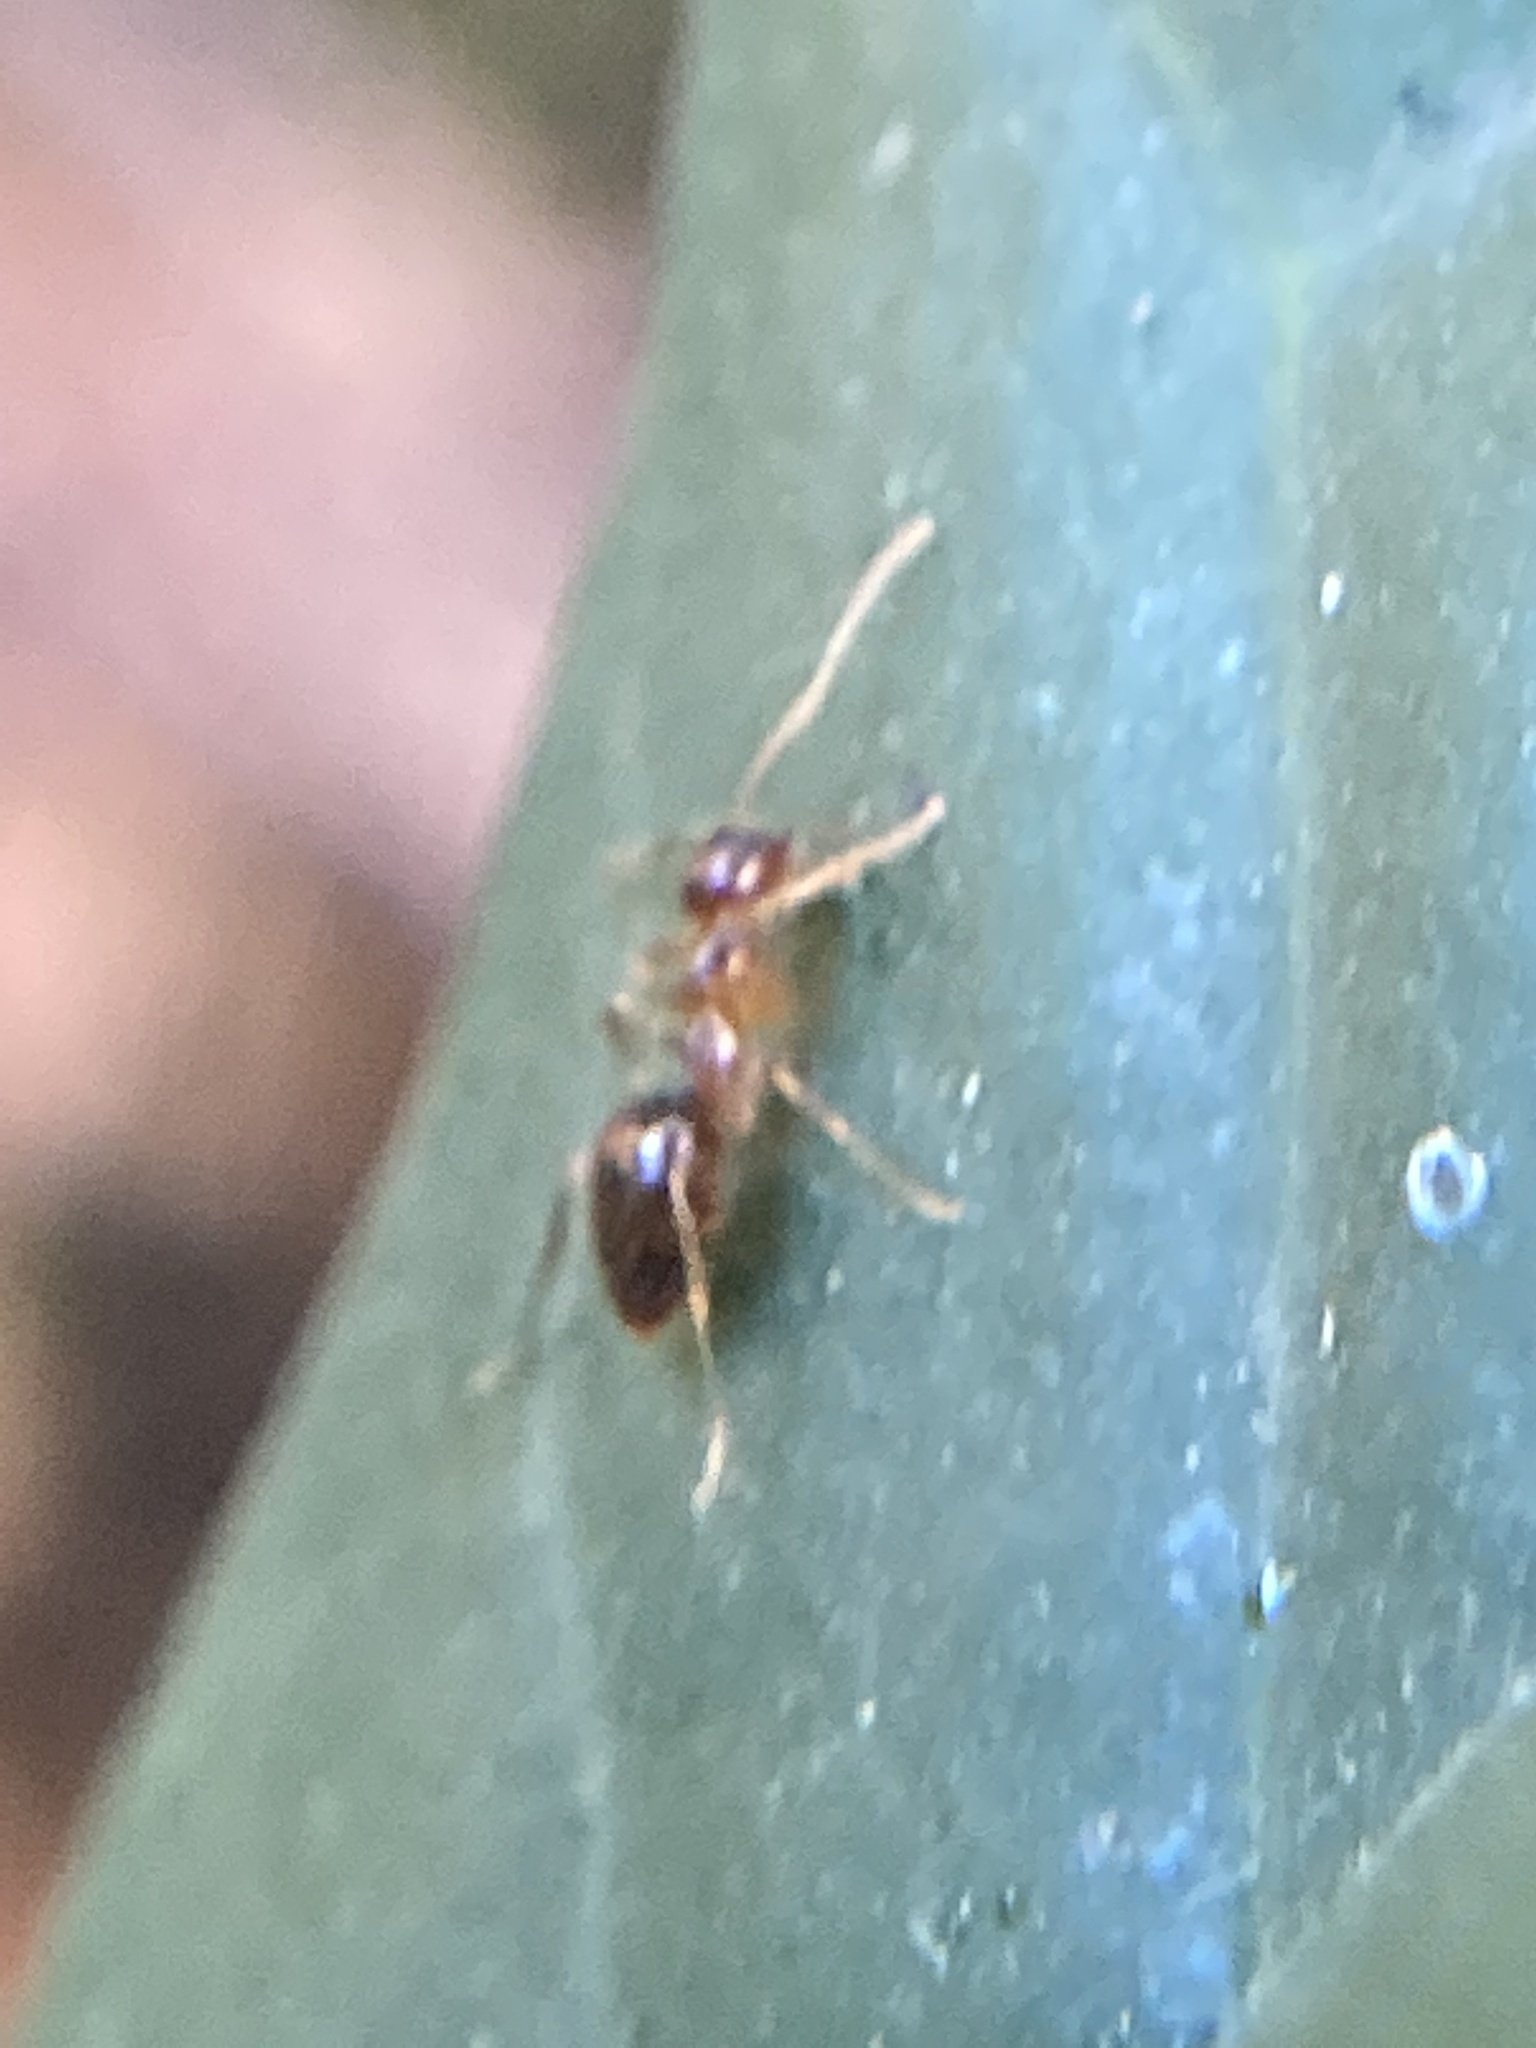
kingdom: Animalia
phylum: Arthropoda
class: Insecta
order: Hymenoptera
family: Formicidae
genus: Prenolepis
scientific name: Prenolepis imparis
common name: Small honey ant
